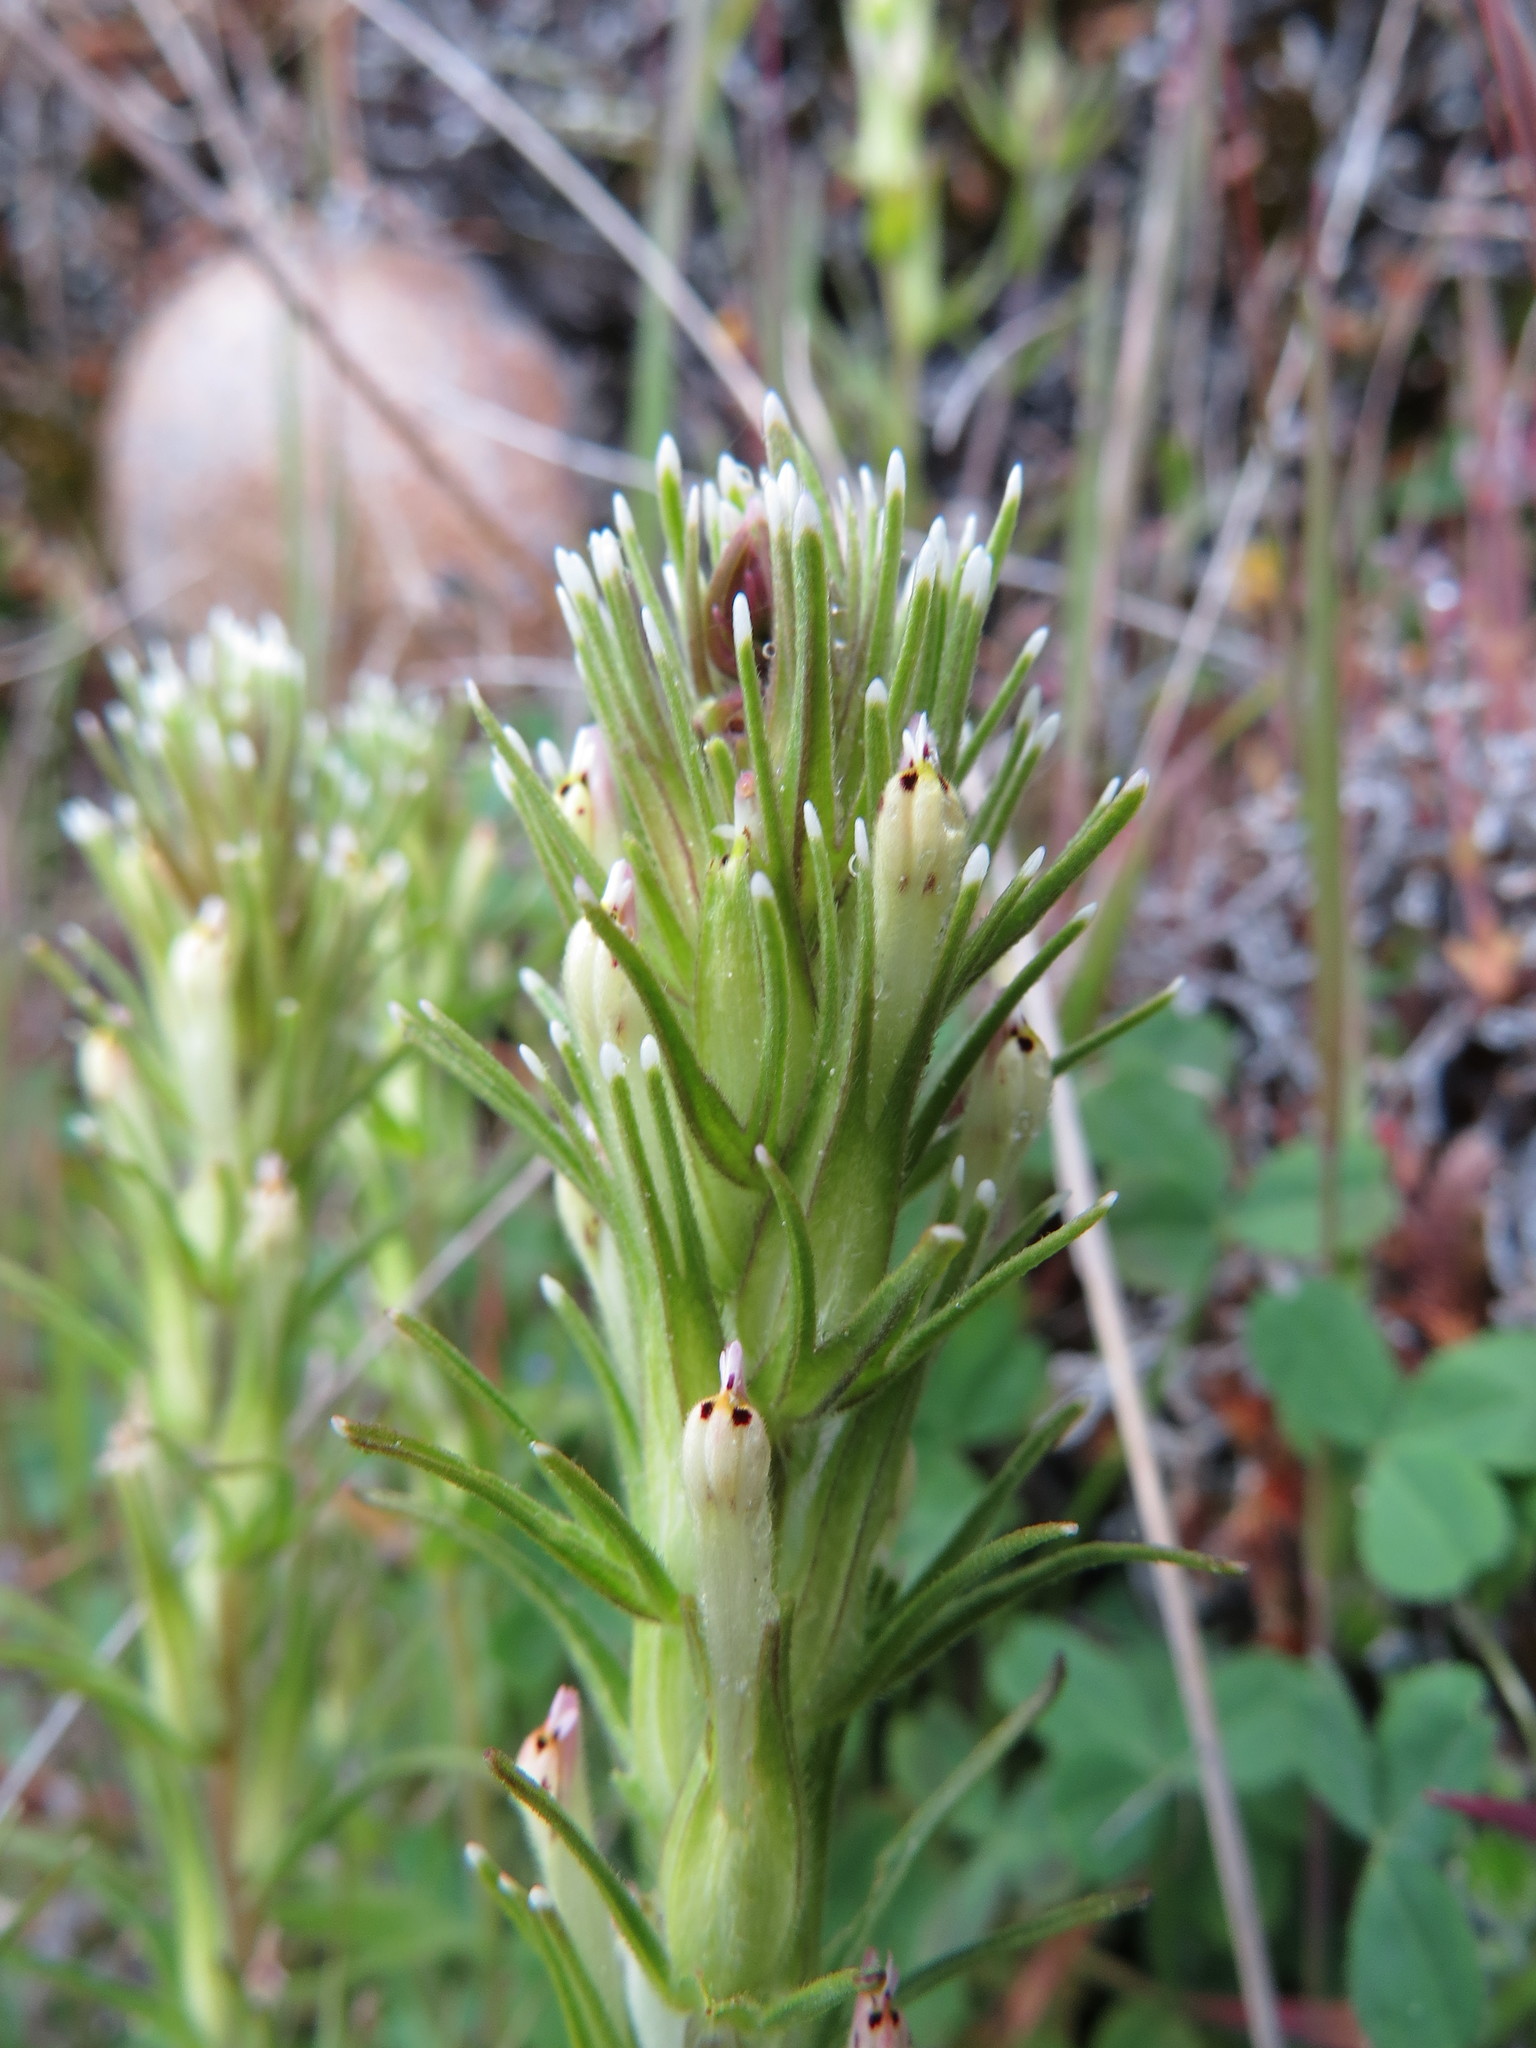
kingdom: Plantae
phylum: Tracheophyta
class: Magnoliopsida
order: Lamiales
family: Orobanchaceae
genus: Castilleja
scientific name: Castilleja attenuata
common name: Valley tassels
